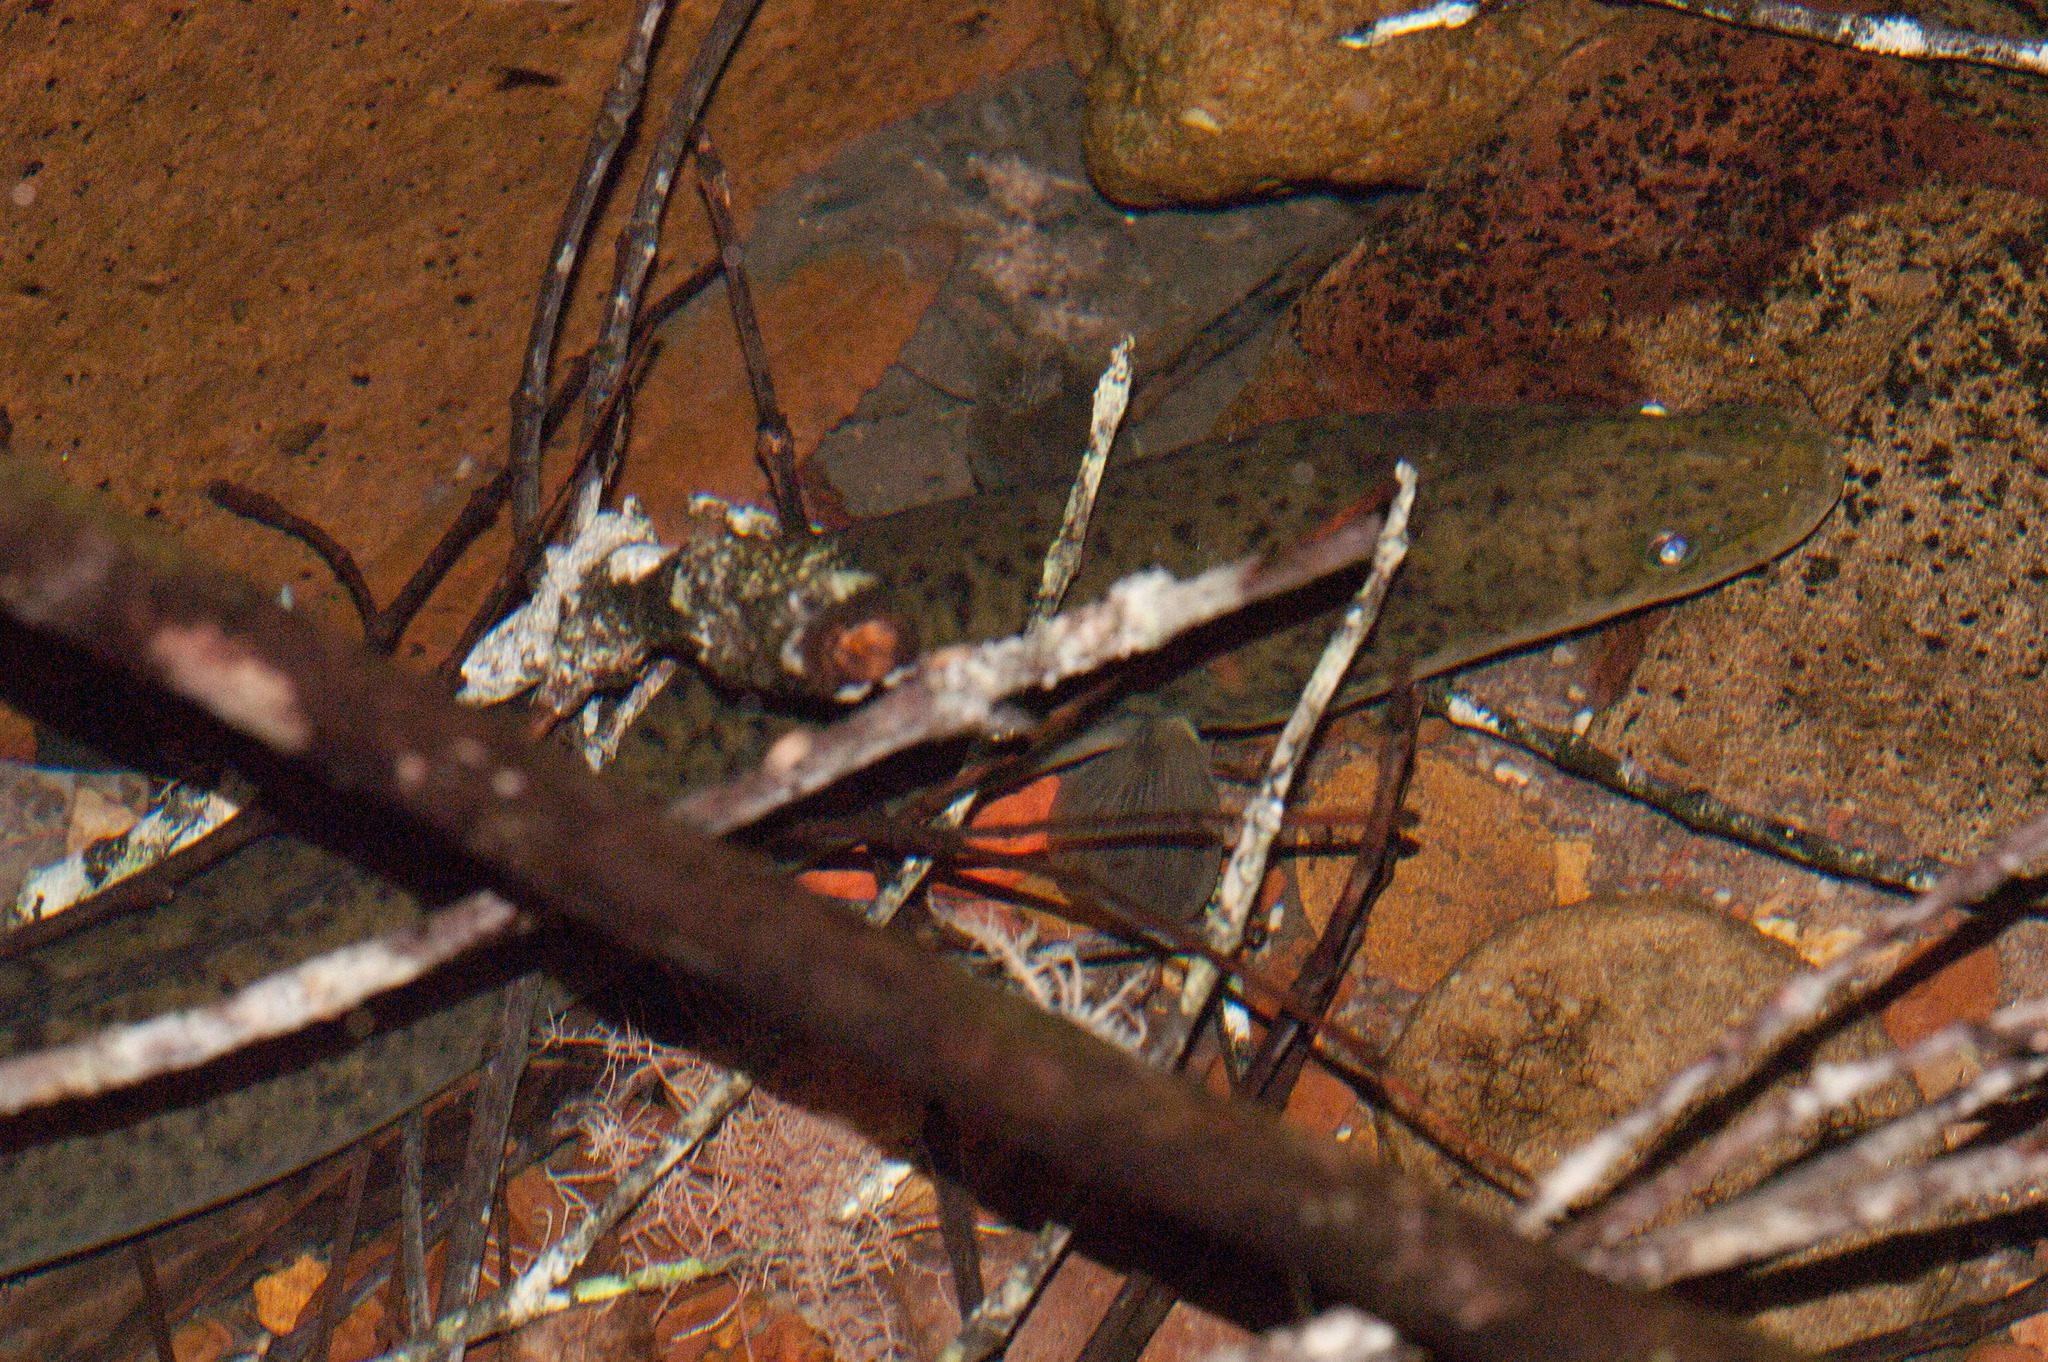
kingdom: Animalia
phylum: Chordata
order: Anguilliformes
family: Anguillidae
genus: Anguilla
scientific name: Anguilla reinhardtii
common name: Longfin eel
